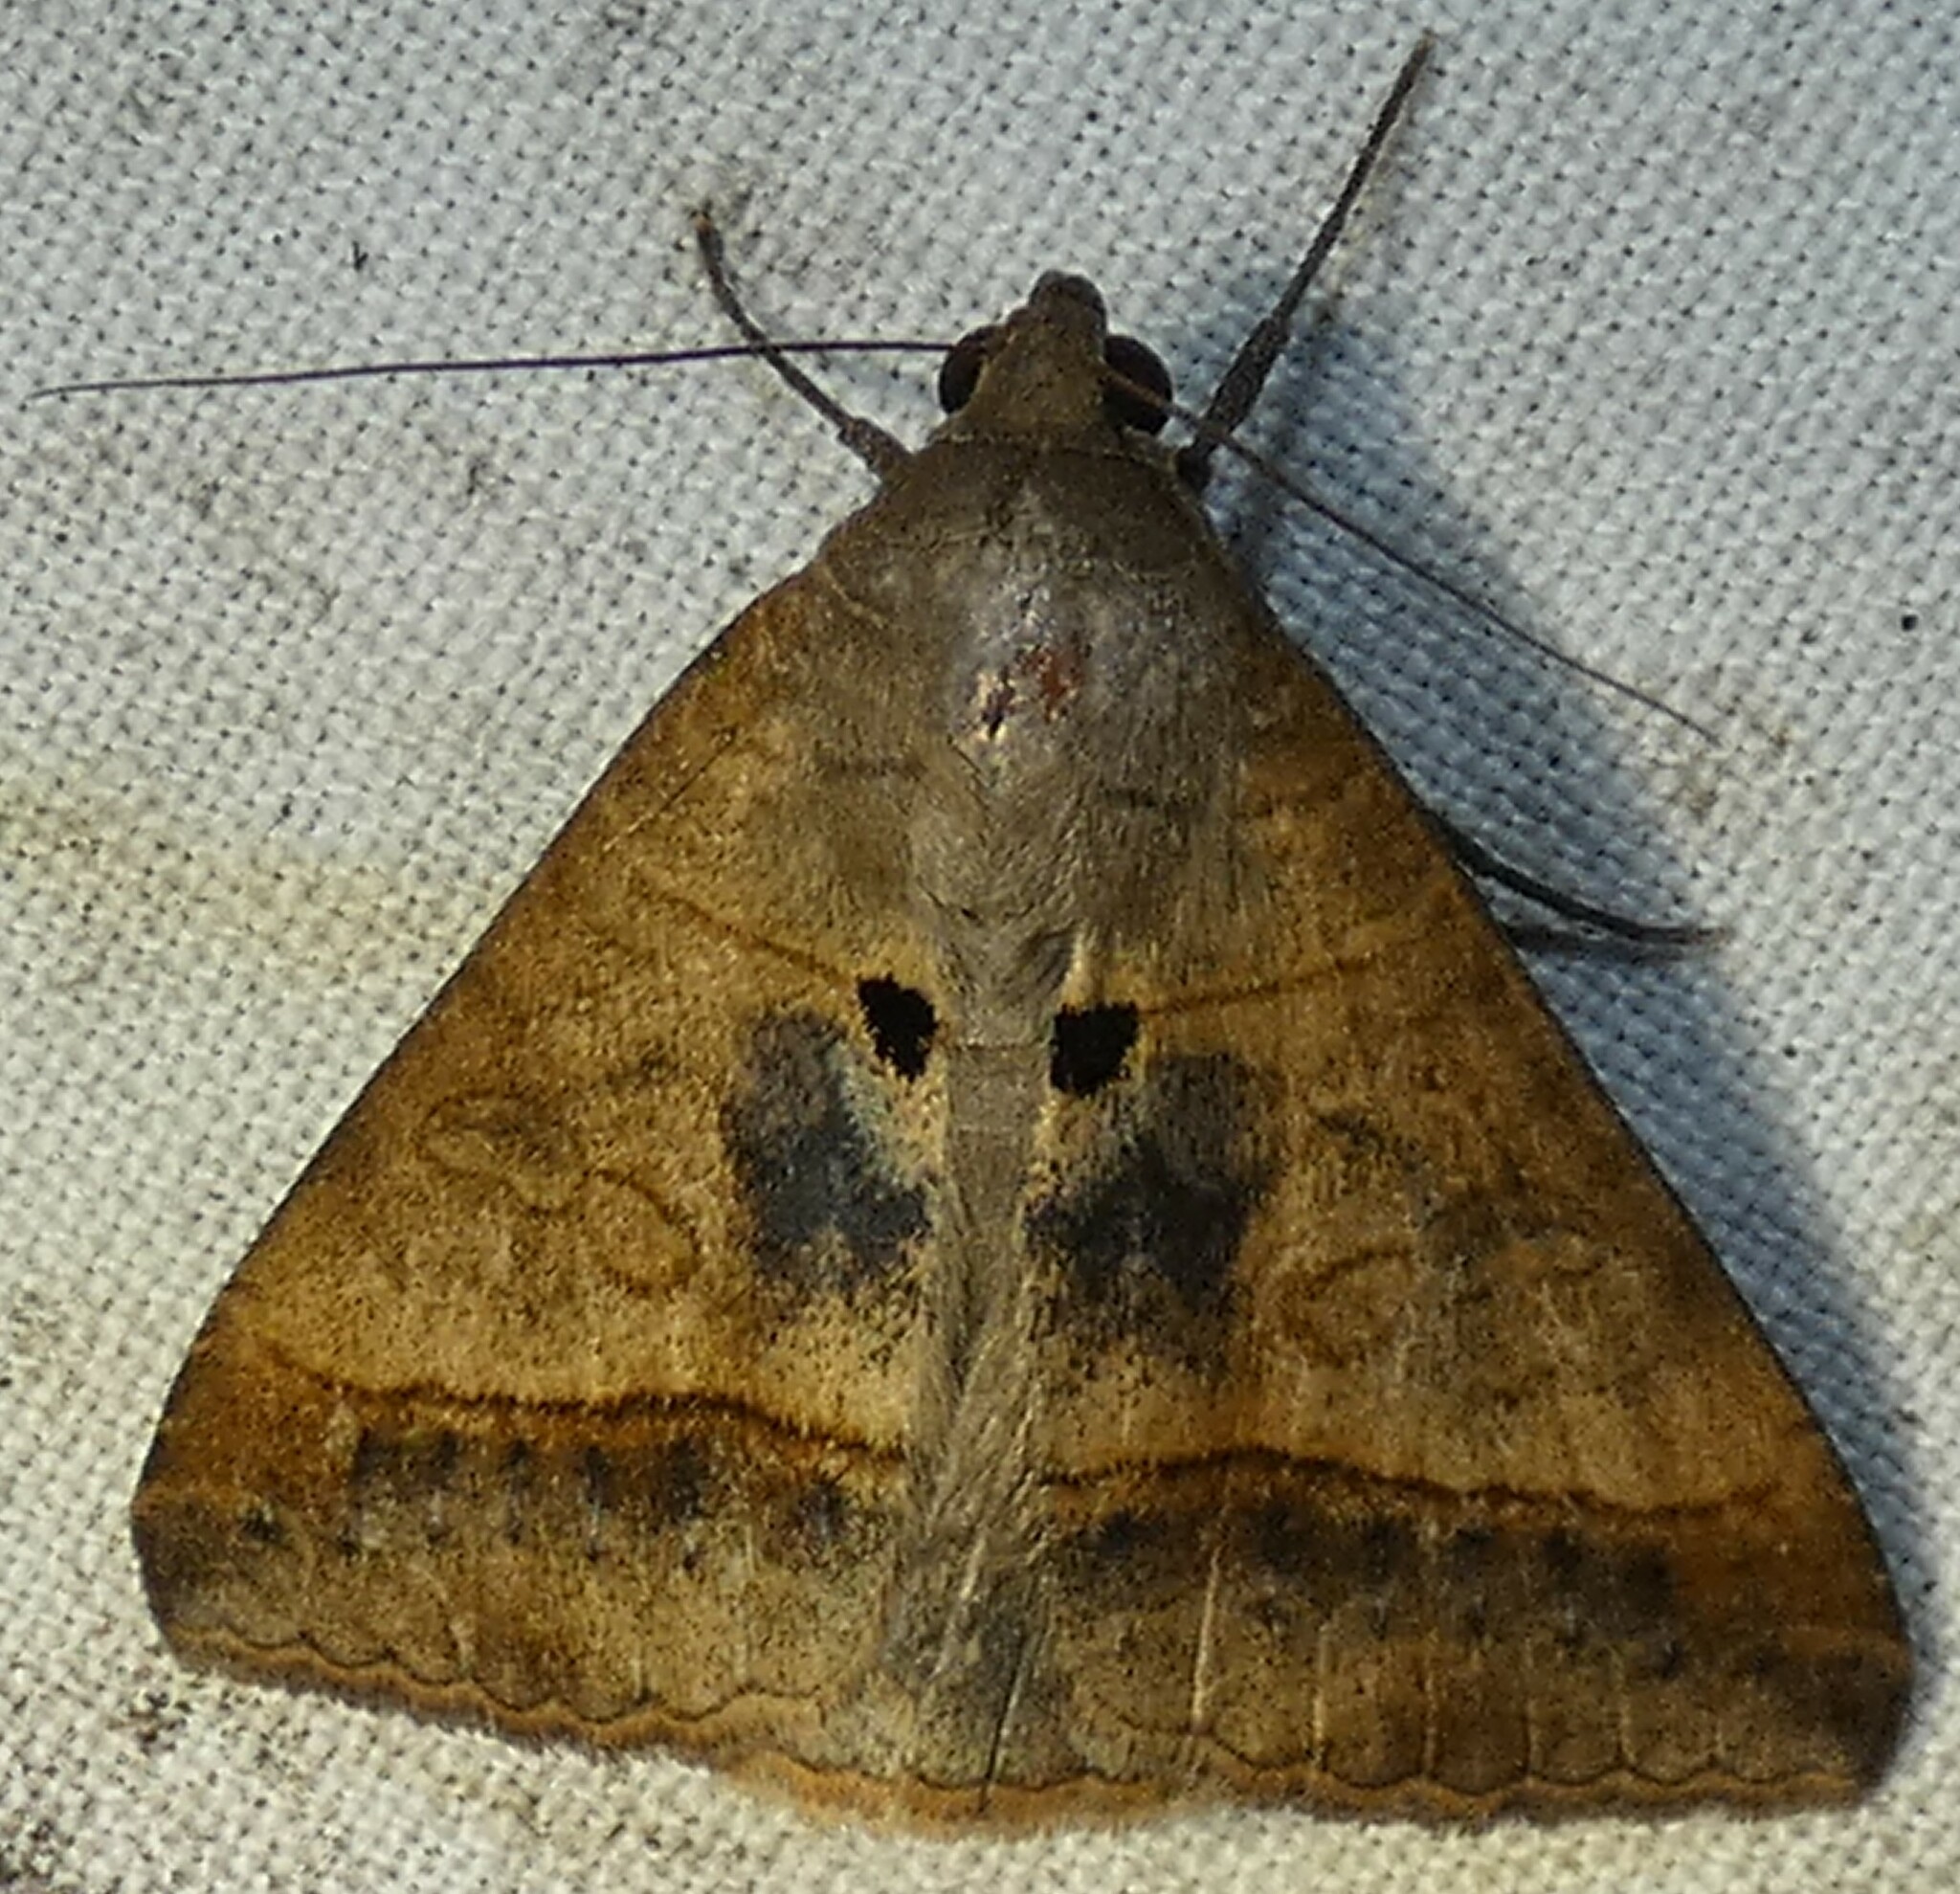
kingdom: Animalia
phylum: Arthropoda
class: Insecta
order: Lepidoptera
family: Erebidae
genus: Mocis
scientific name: Mocis latipes
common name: Striped grass looper
